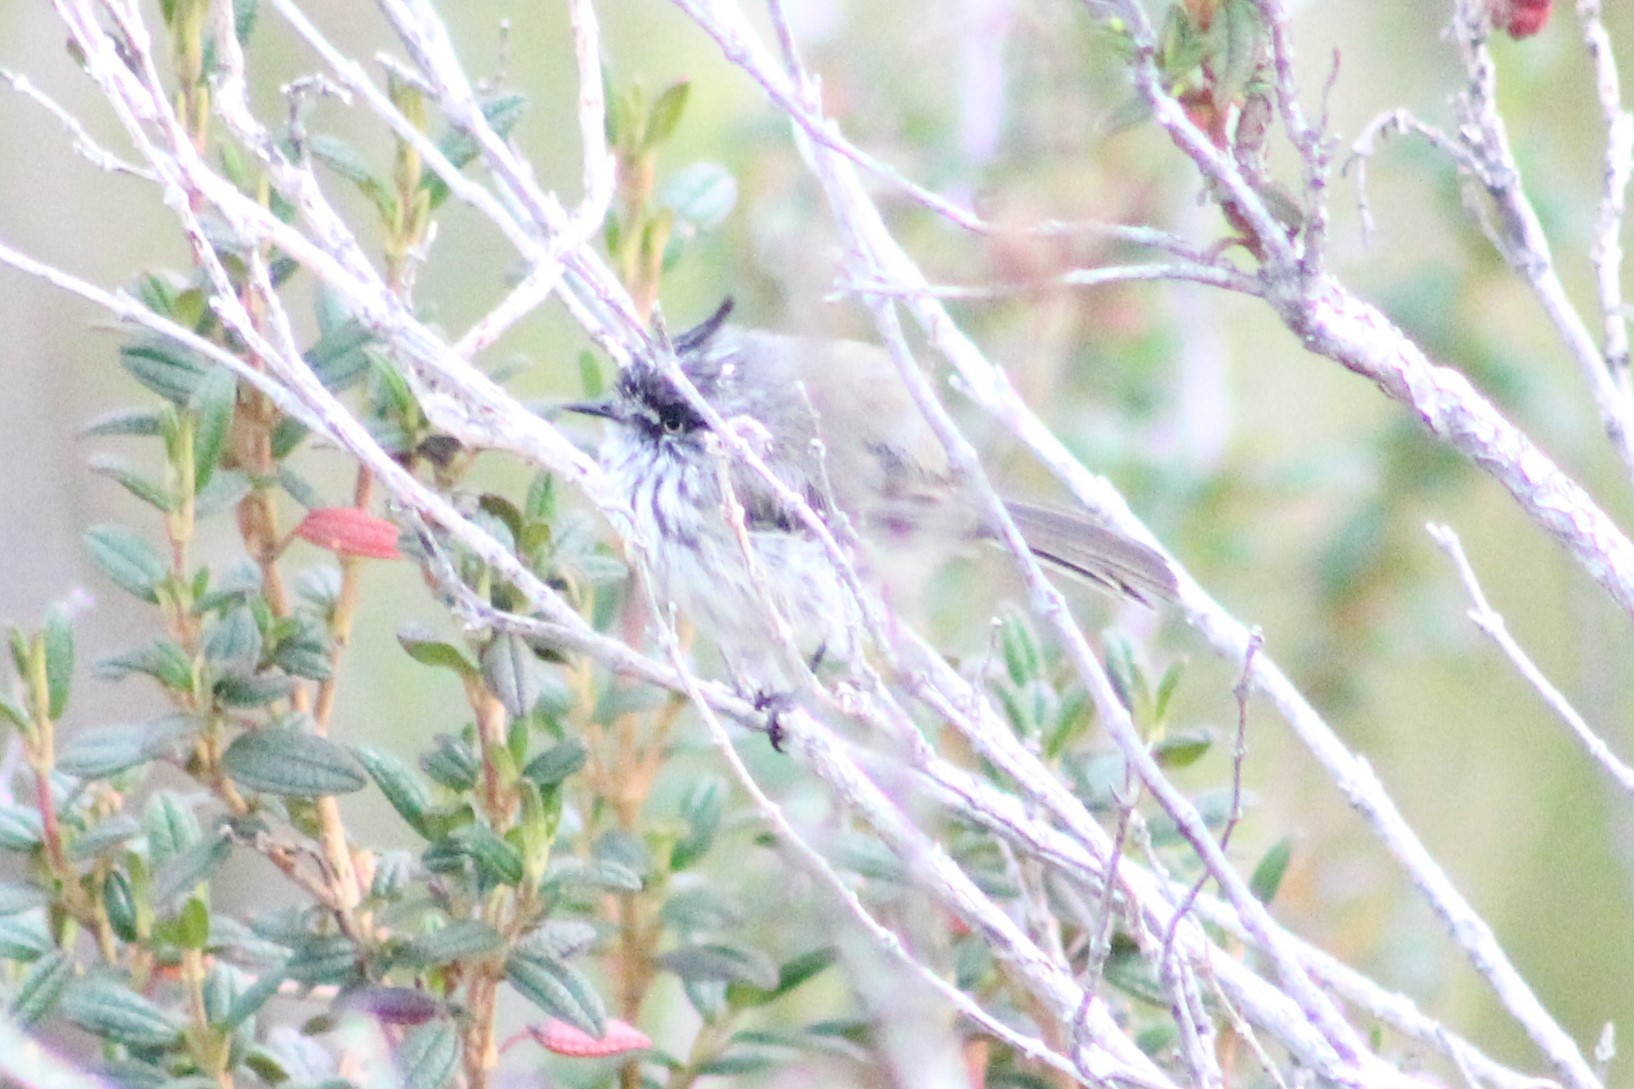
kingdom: Animalia
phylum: Chordata
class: Aves
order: Passeriformes
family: Tyrannidae
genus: Anairetes
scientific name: Anairetes parulus
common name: Tufted tit-tyrant
